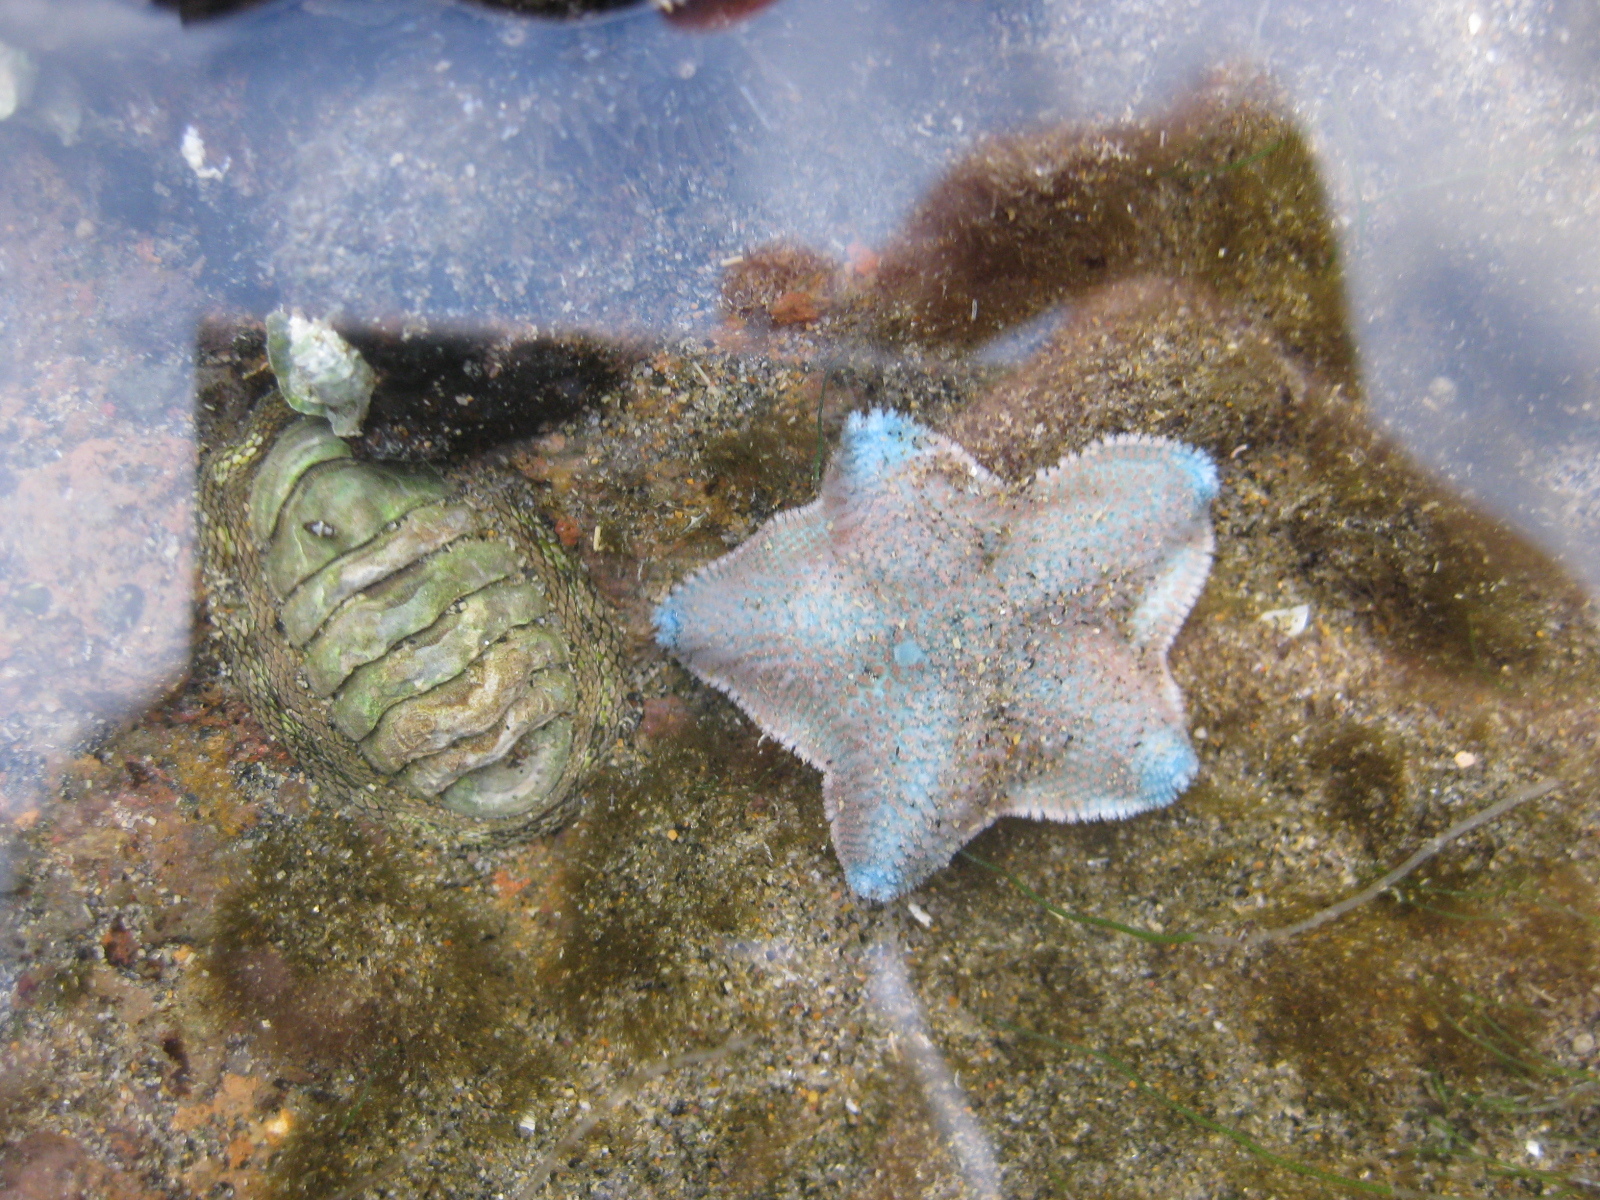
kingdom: Animalia
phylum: Echinodermata
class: Asteroidea
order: Valvatida
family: Asterinidae
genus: Patiriella
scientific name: Patiriella regularis
